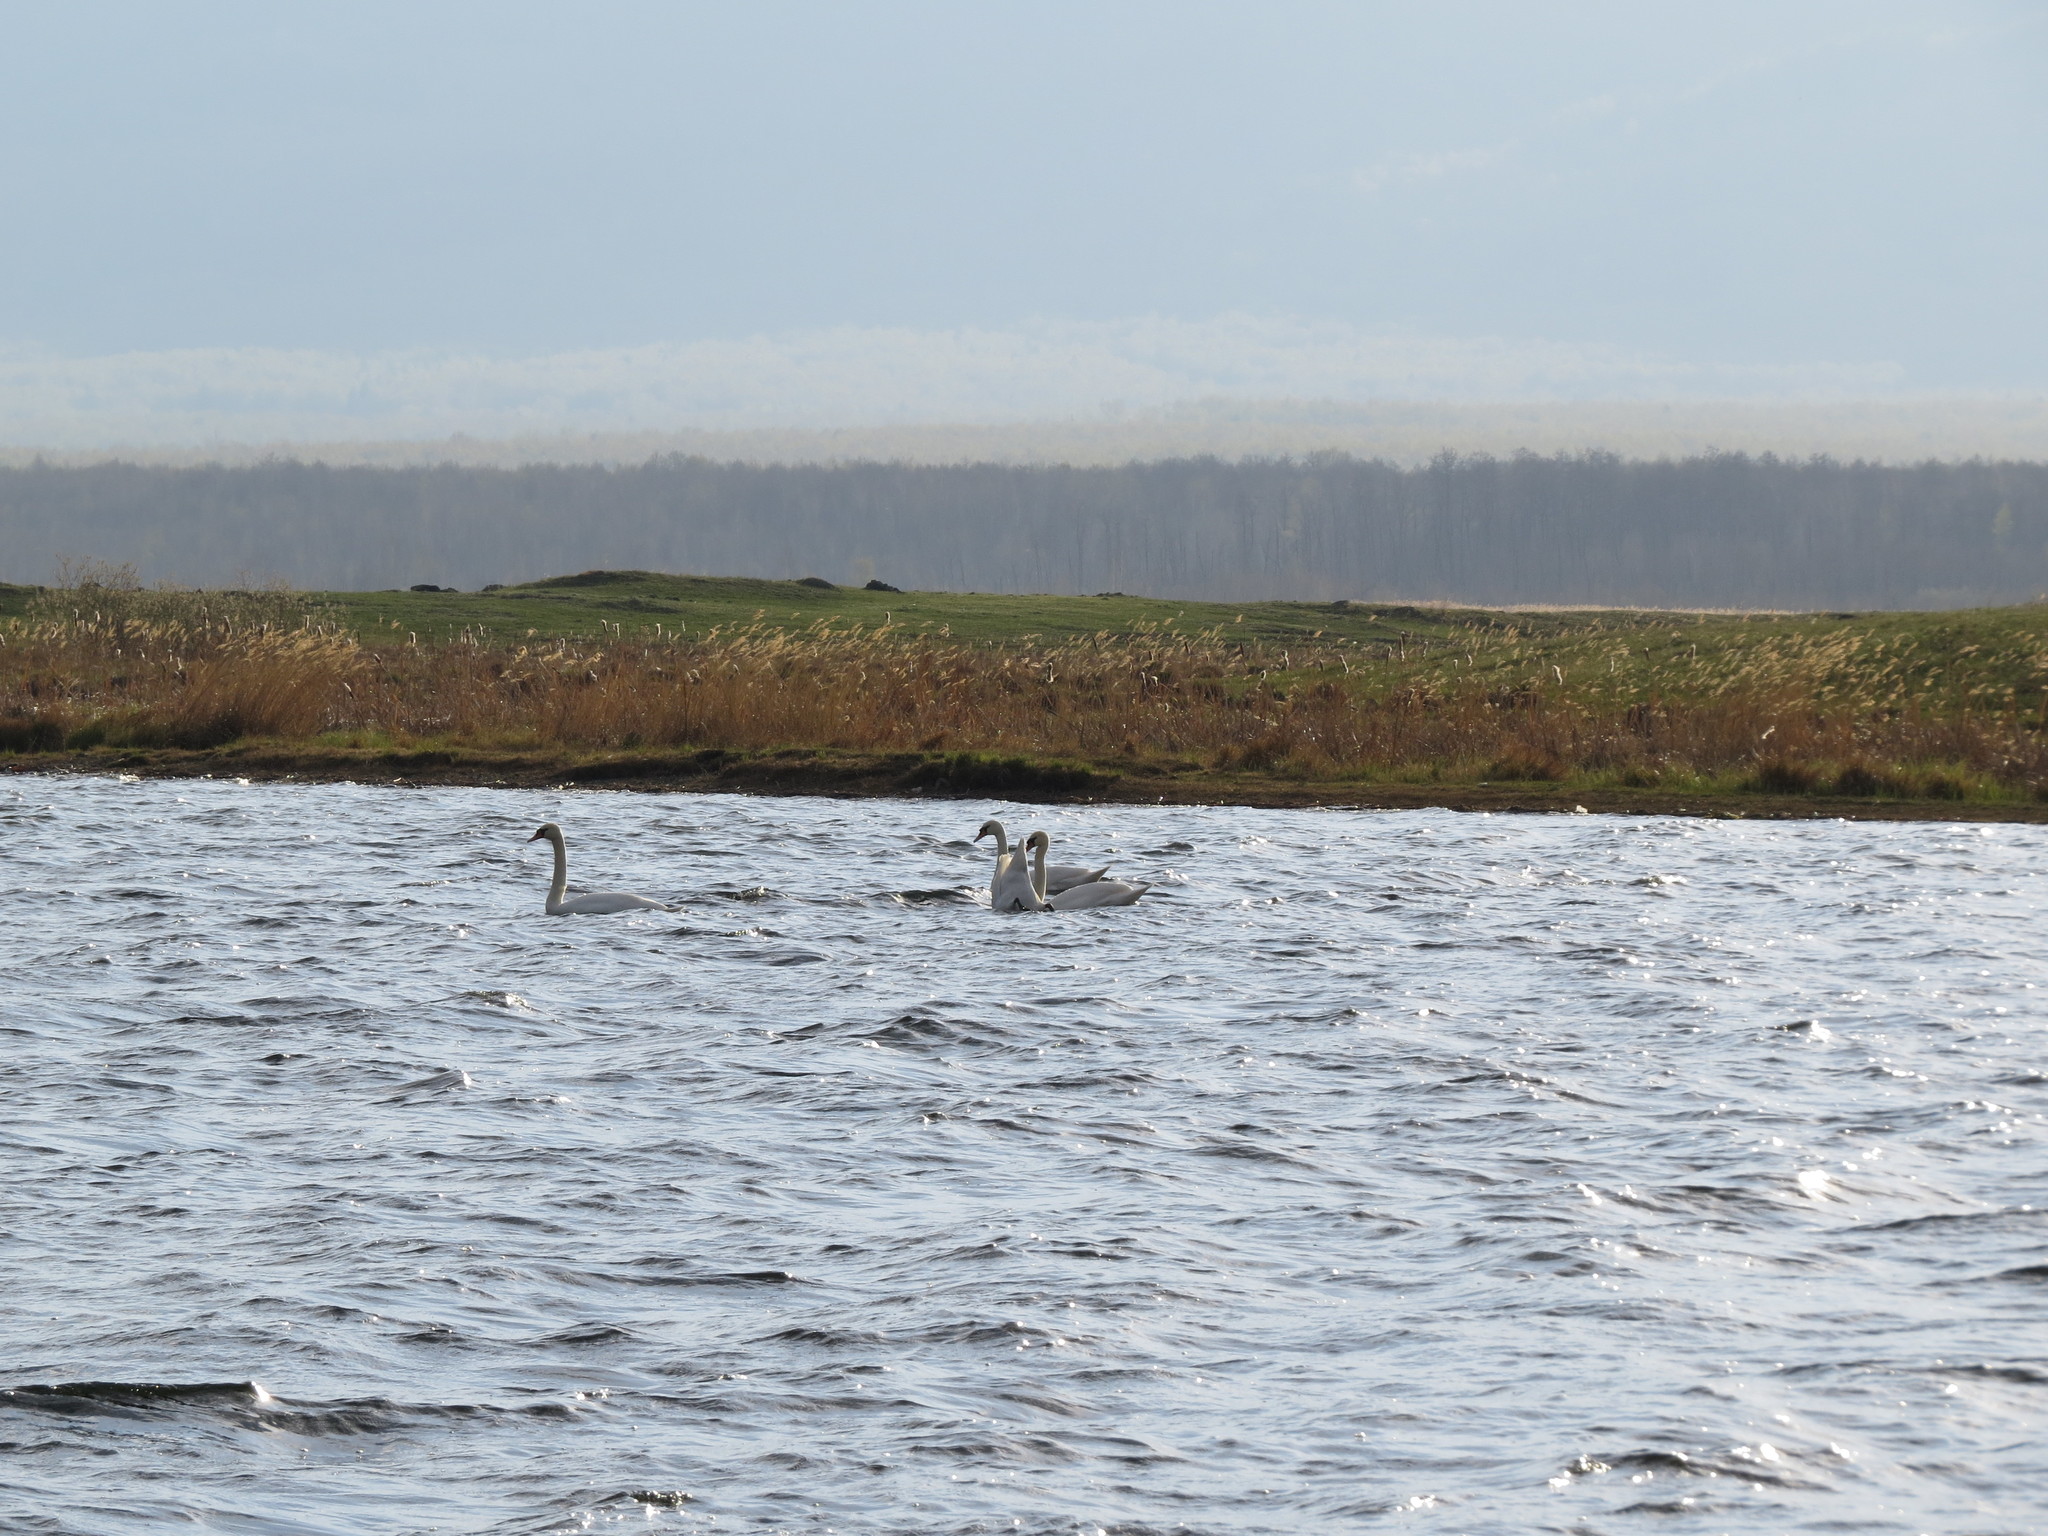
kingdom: Animalia
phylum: Chordata
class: Aves
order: Anseriformes
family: Anatidae
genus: Cygnus
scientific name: Cygnus olor
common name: Mute swan
